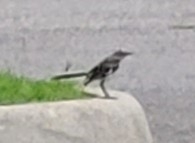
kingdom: Animalia
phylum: Chordata
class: Aves
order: Passeriformes
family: Mimidae
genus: Mimus
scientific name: Mimus polyglottos
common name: Northern mockingbird
